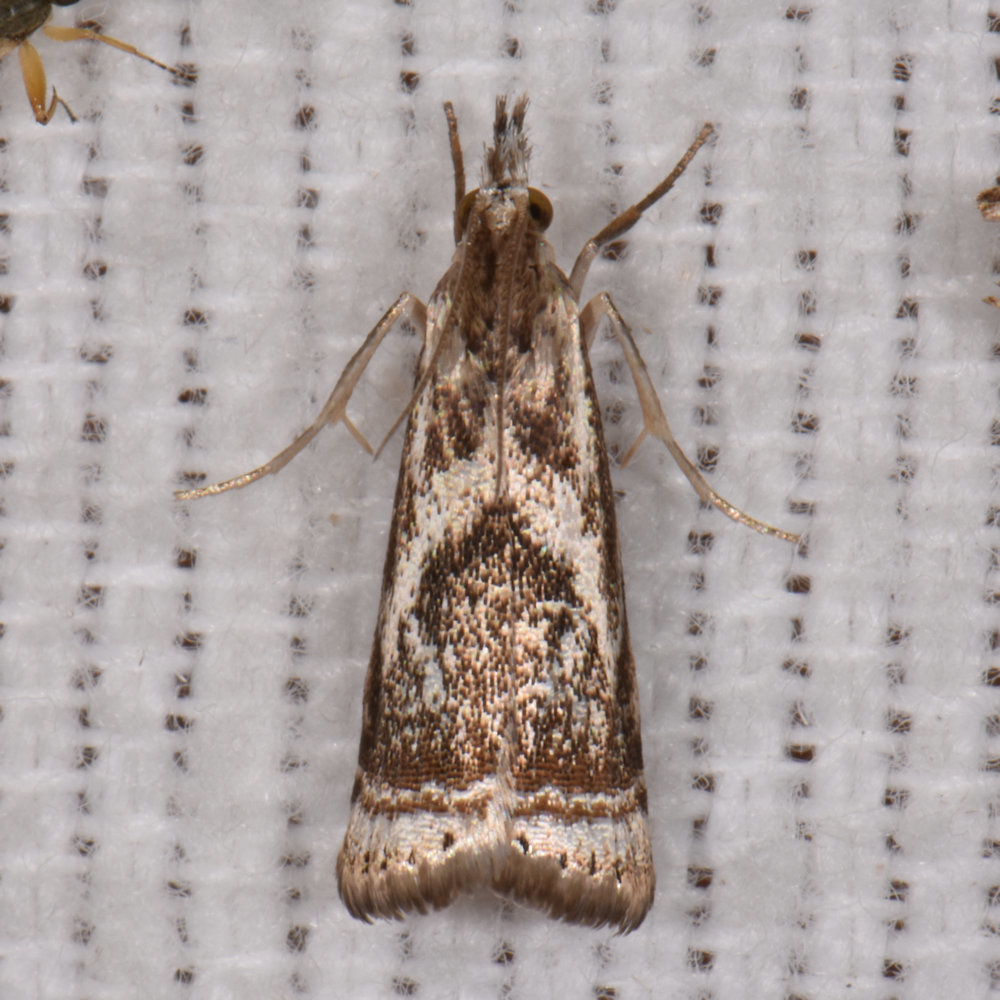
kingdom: Animalia
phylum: Arthropoda
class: Insecta
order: Lepidoptera
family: Crambidae
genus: Microcrambus
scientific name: Microcrambus elegans
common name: Elegant grass-veneer
